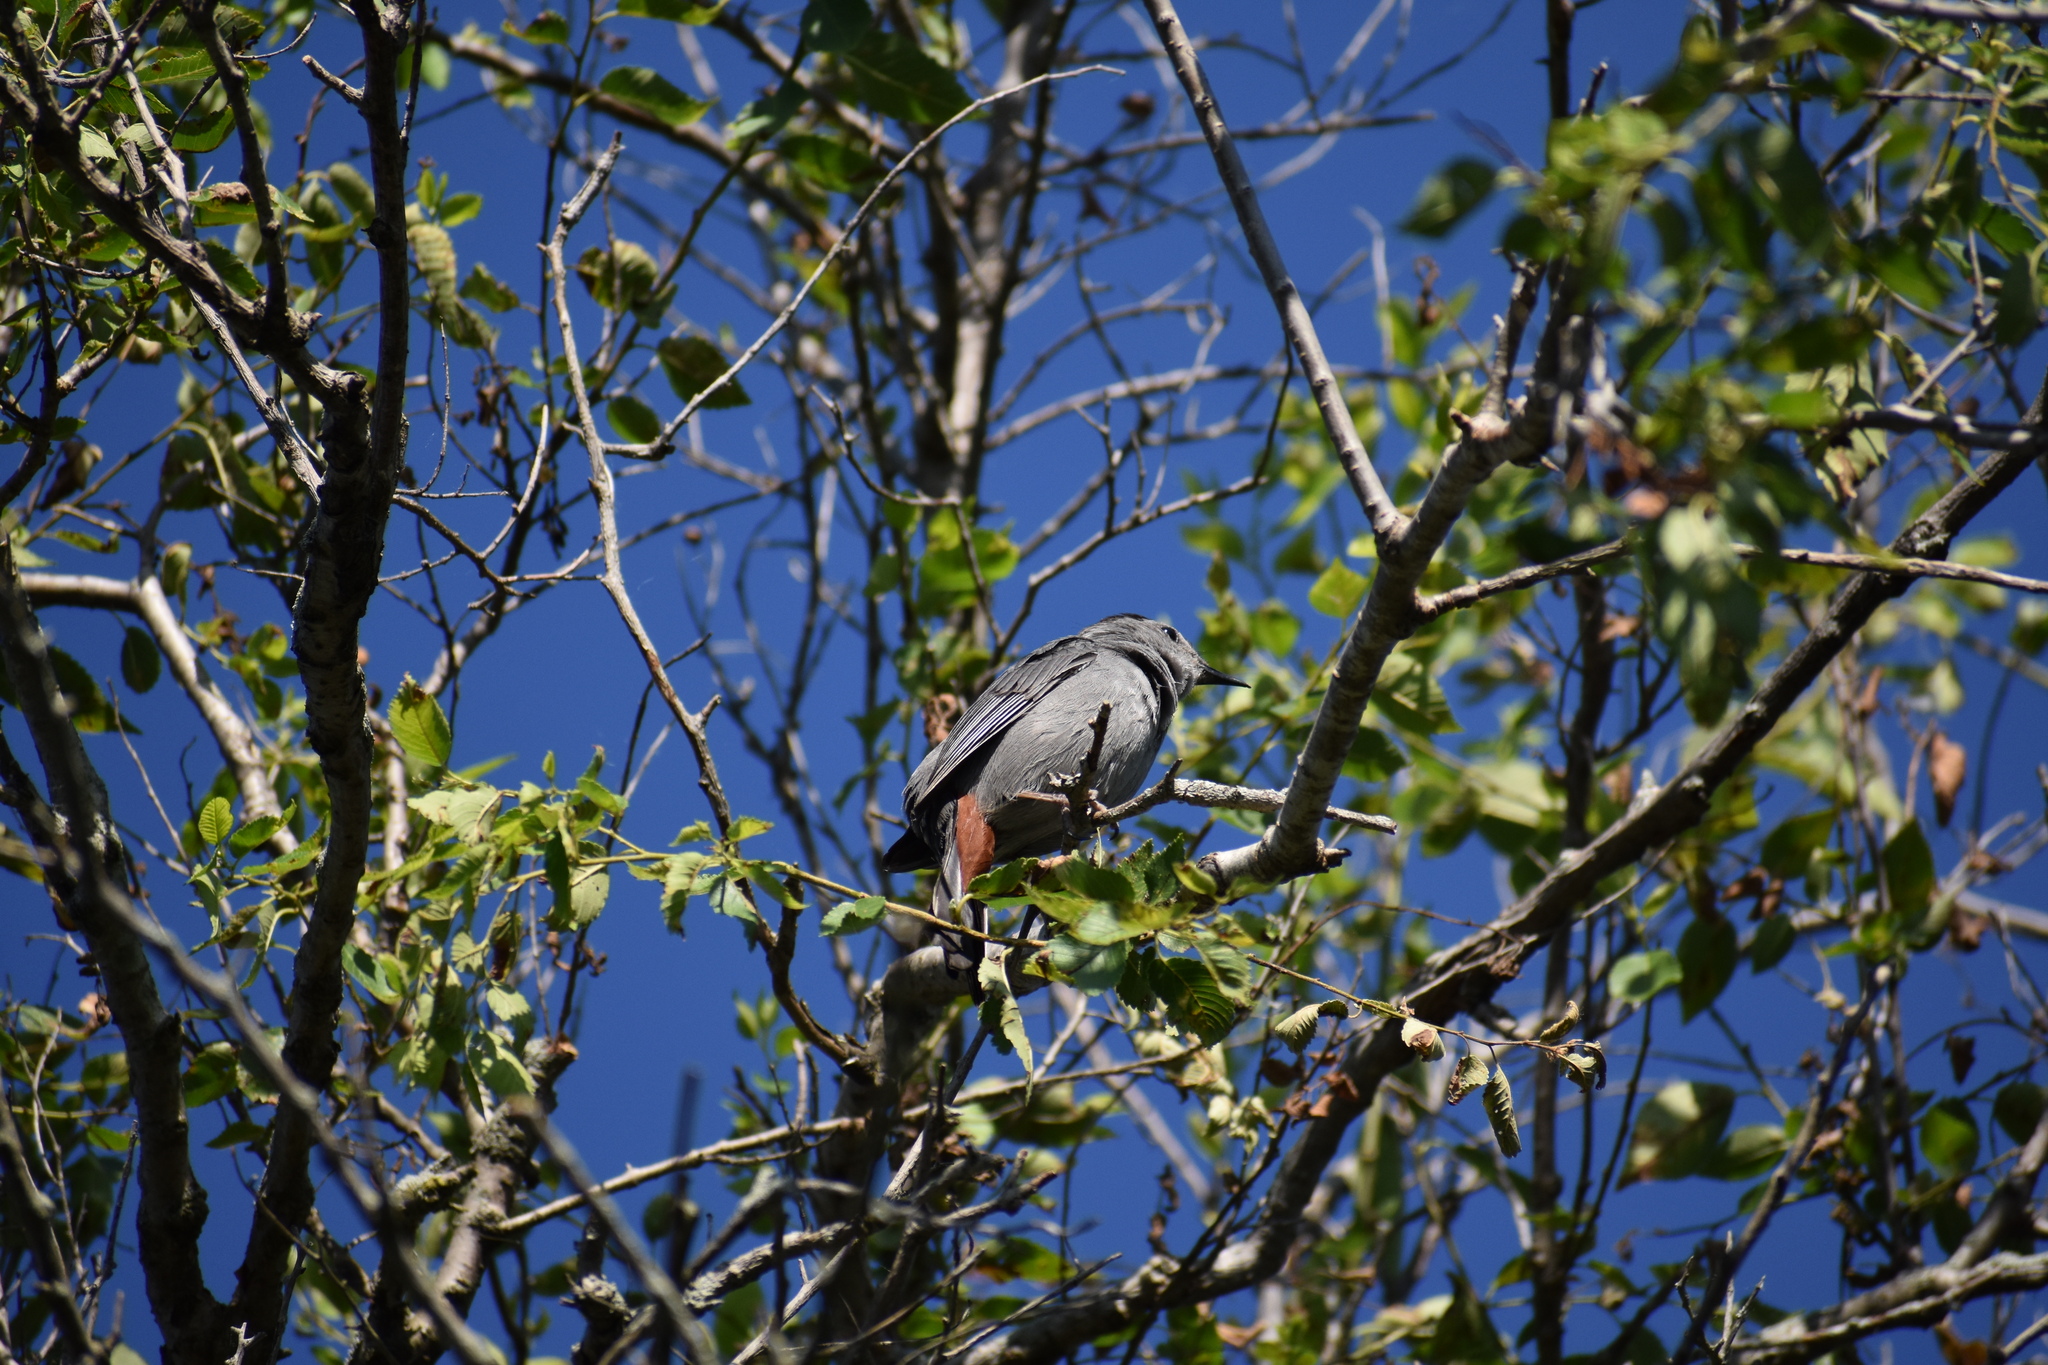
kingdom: Animalia
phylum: Chordata
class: Aves
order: Passeriformes
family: Mimidae
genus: Dumetella
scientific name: Dumetella carolinensis
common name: Gray catbird
